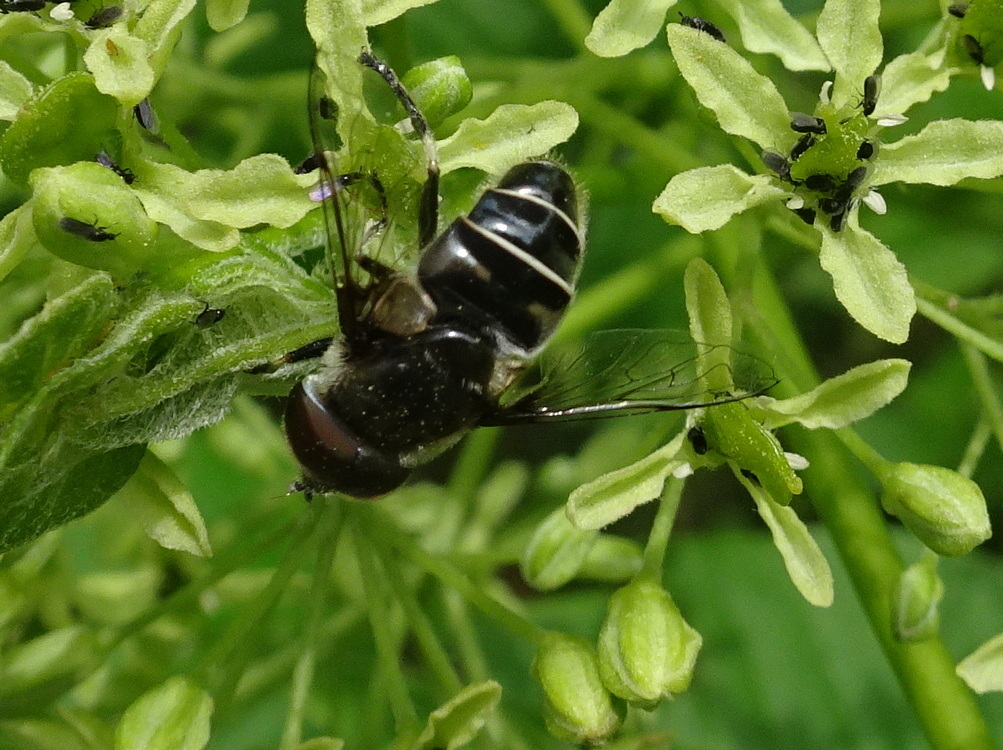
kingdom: Animalia
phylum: Arthropoda
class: Insecta
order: Diptera
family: Syrphidae
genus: Eristalis
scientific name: Eristalis dimidiata
